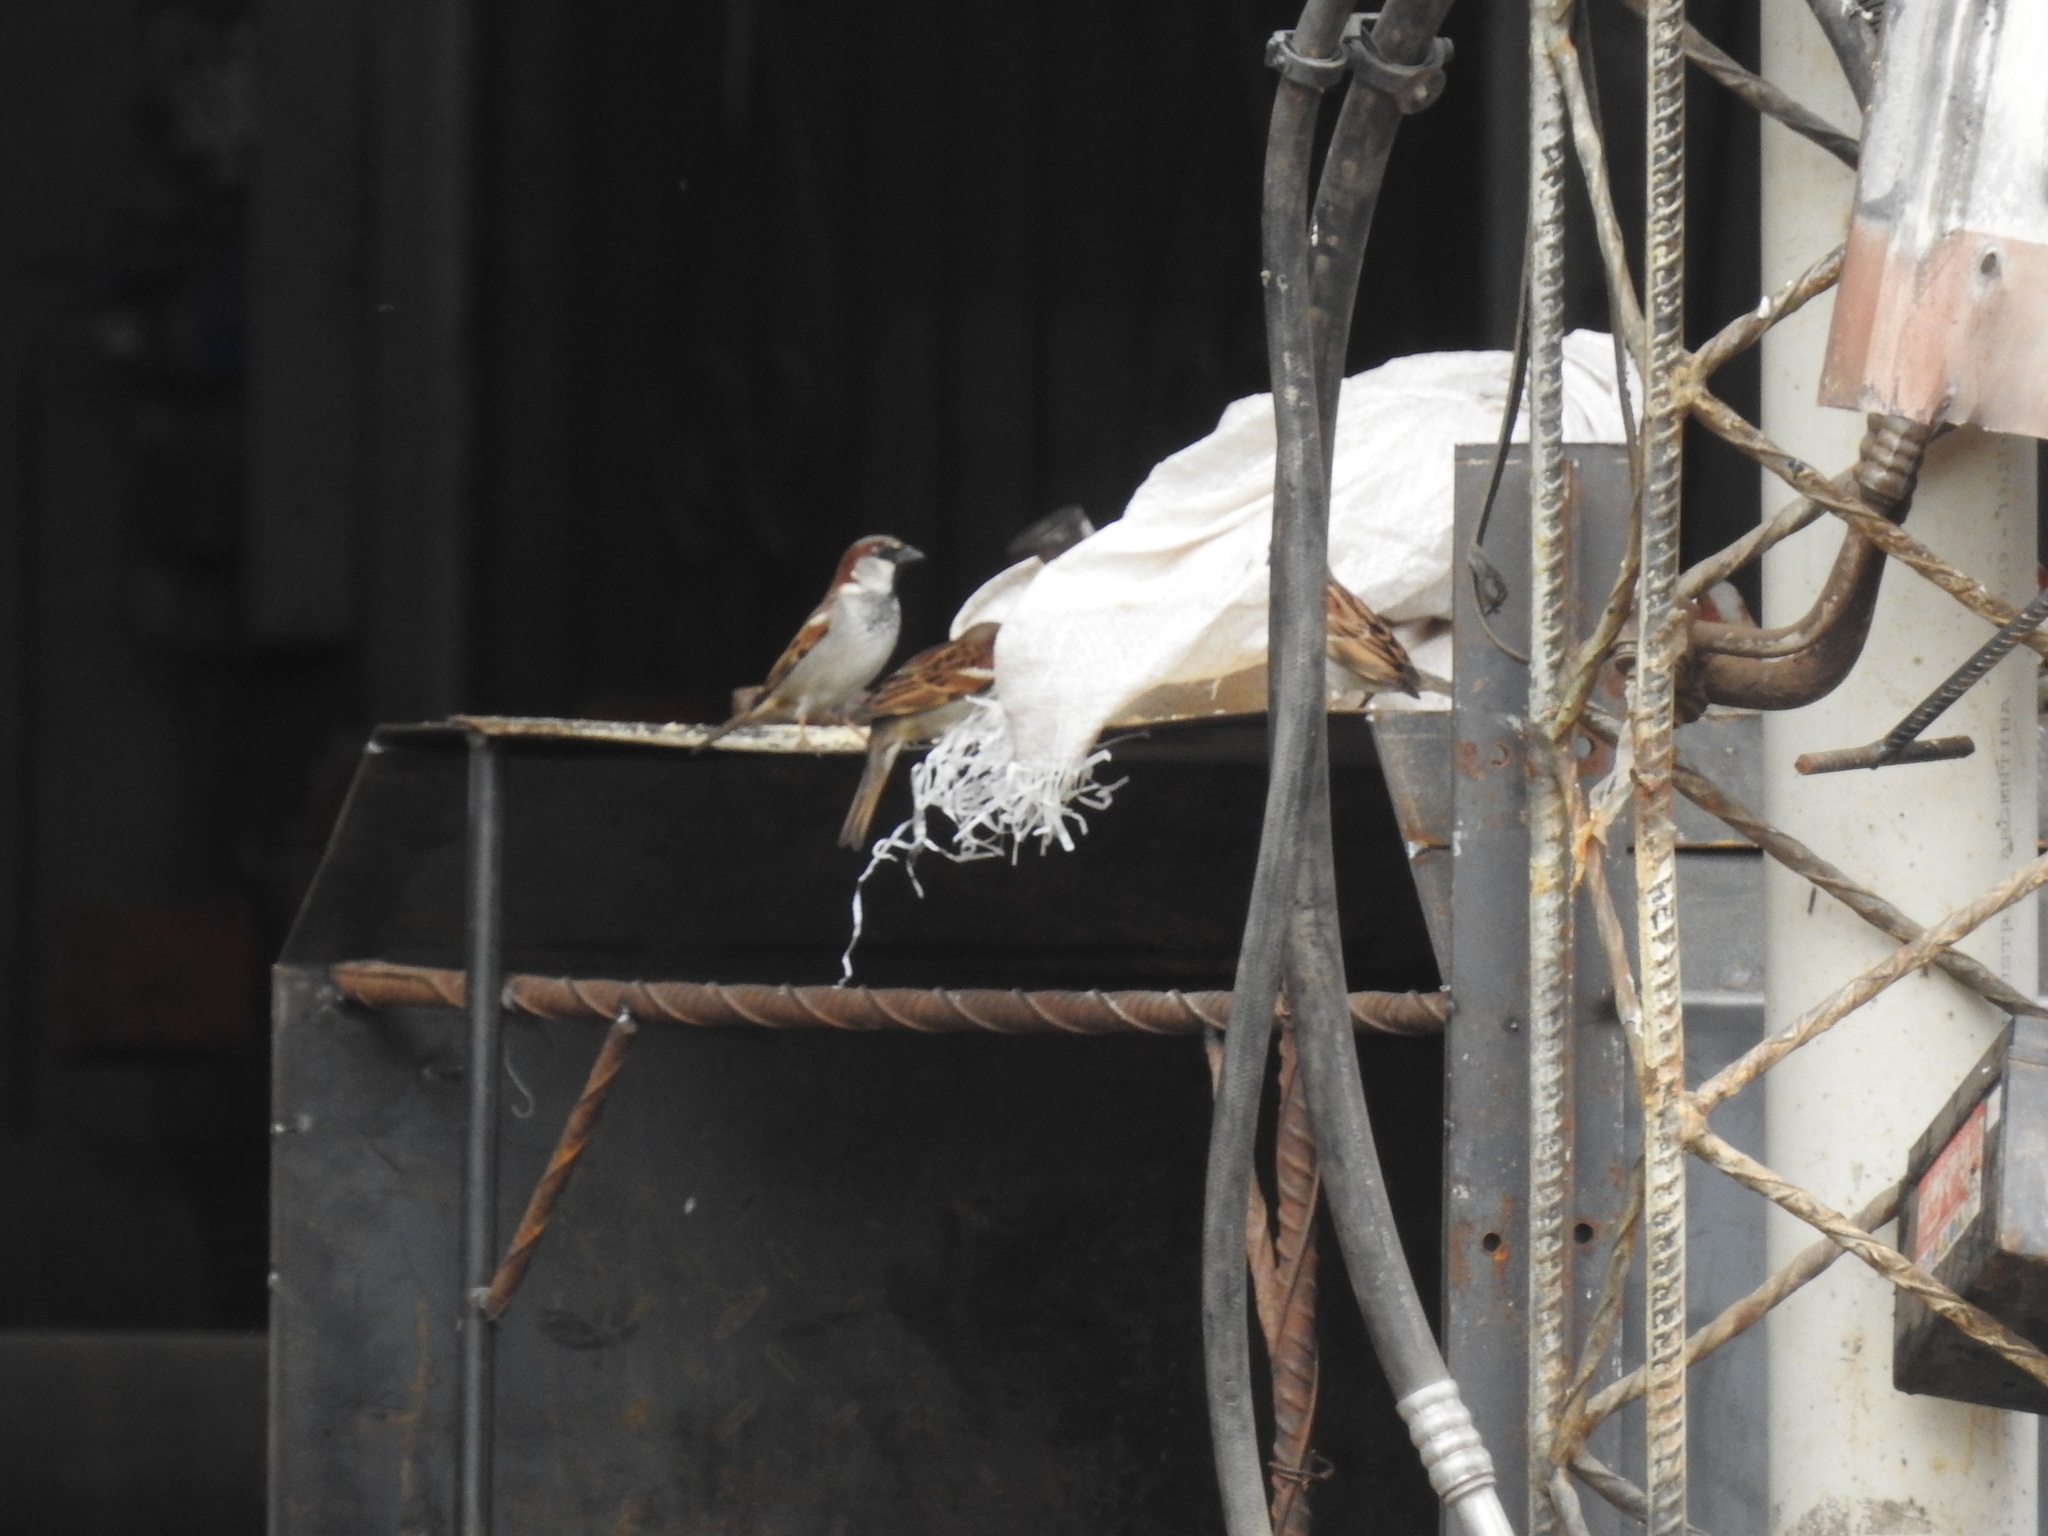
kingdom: Animalia
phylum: Chordata
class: Aves
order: Passeriformes
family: Passeridae
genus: Passer
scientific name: Passer domesticus
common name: House sparrow
